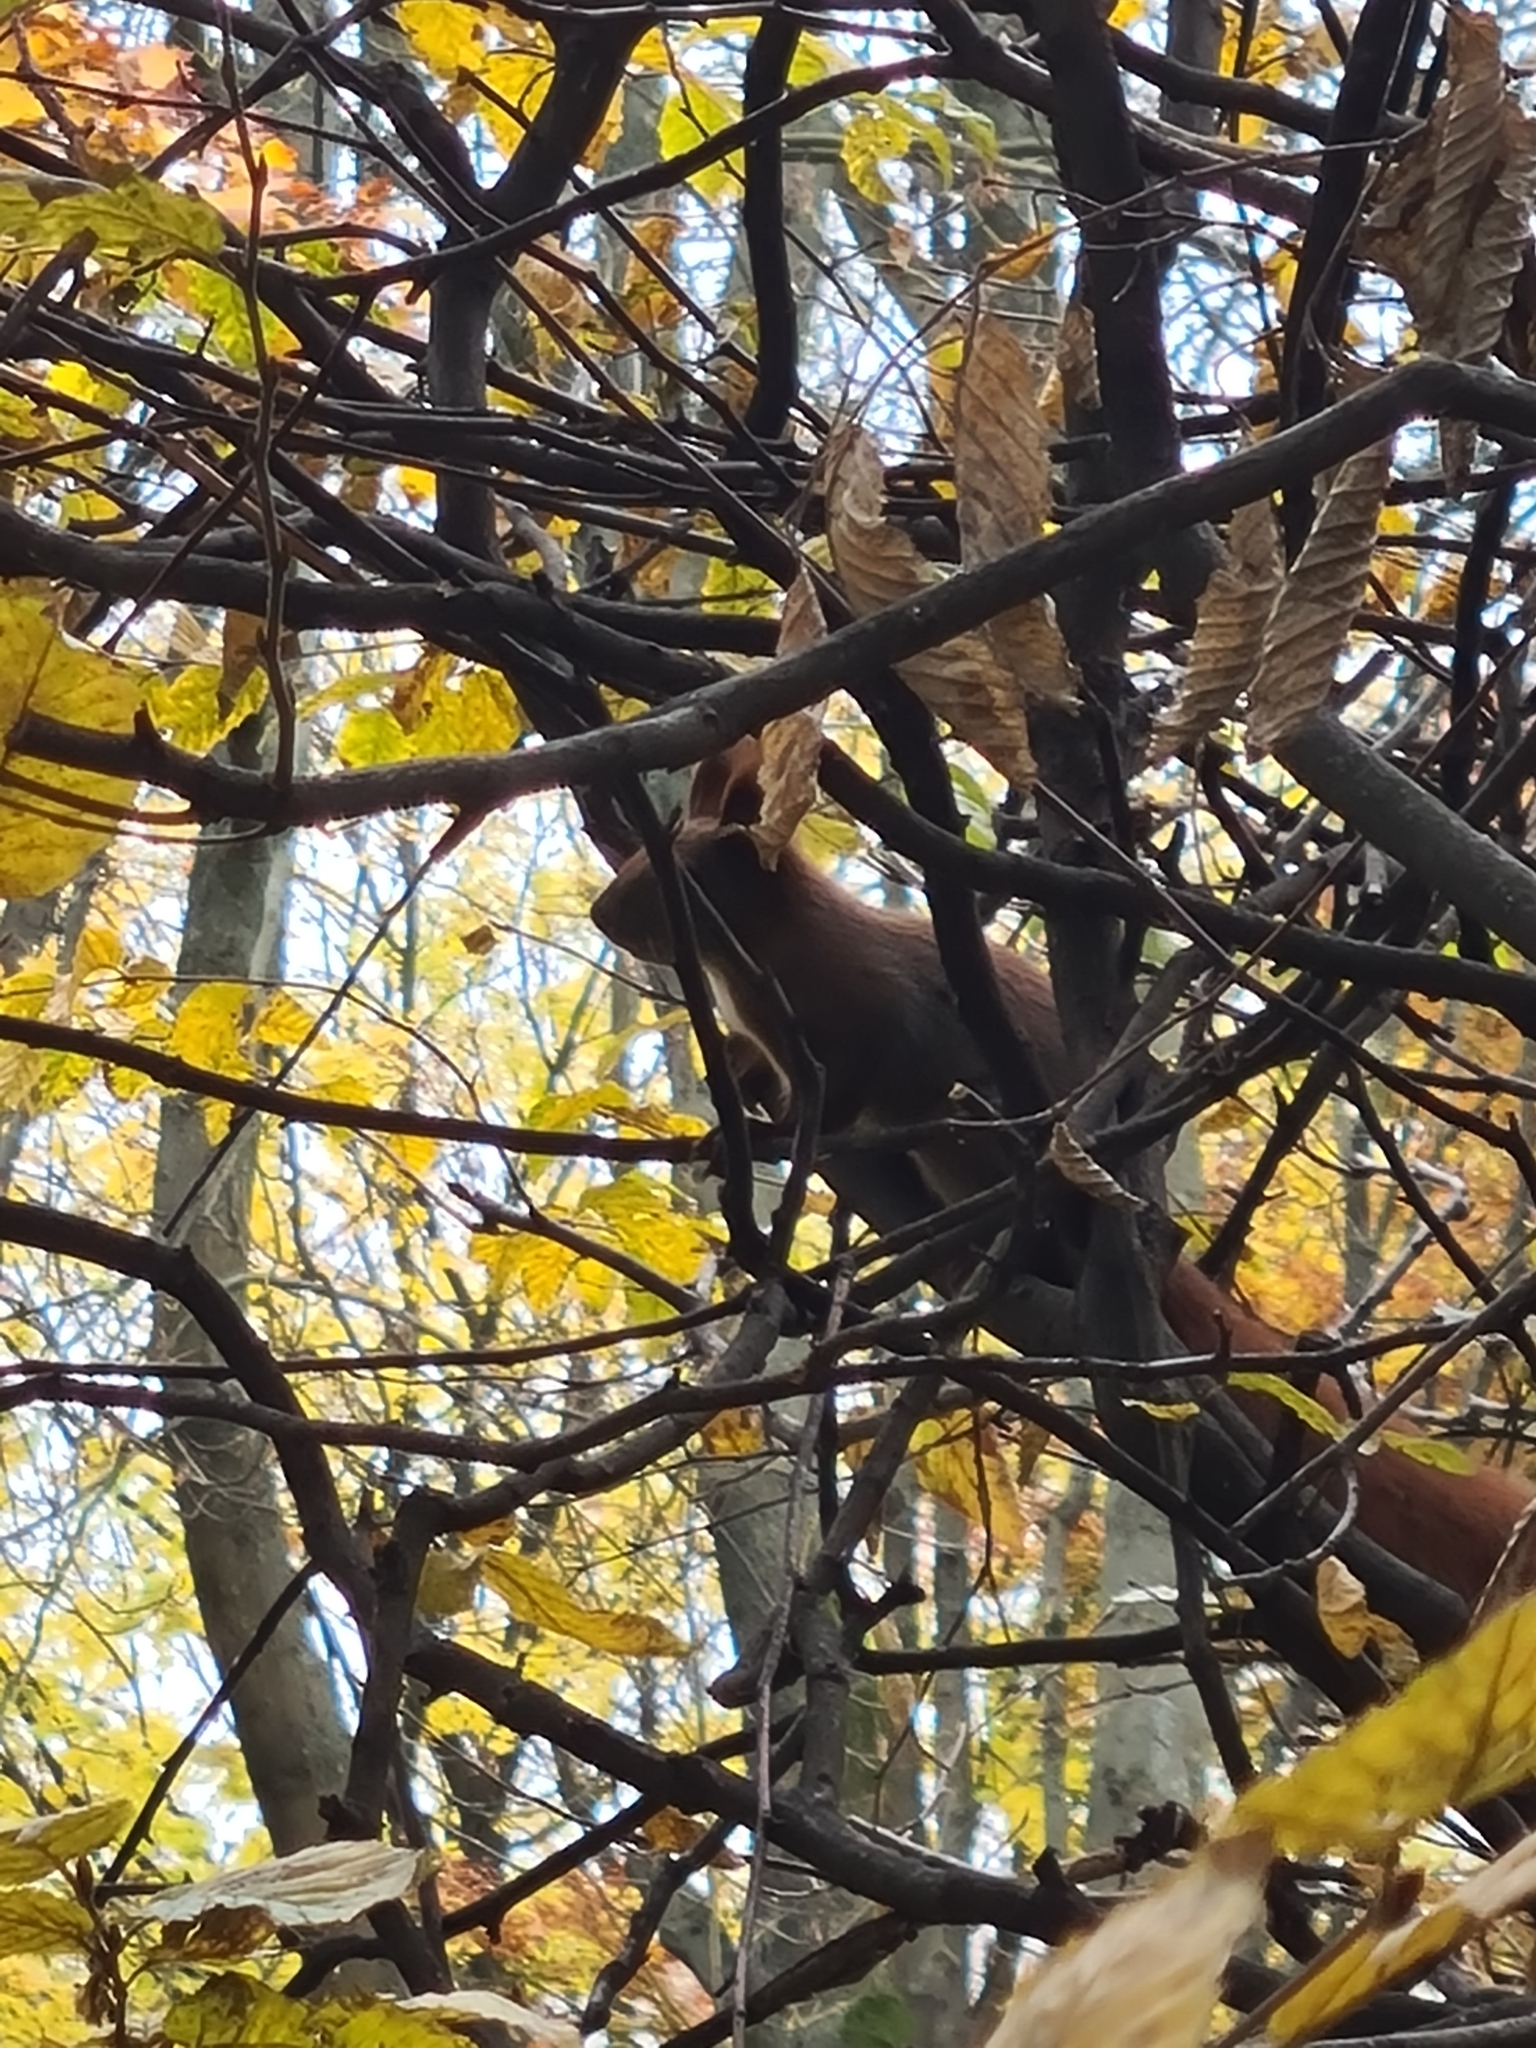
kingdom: Animalia
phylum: Chordata
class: Mammalia
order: Rodentia
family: Sciuridae
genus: Sciurus
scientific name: Sciurus vulgaris
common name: Eurasian red squirrel
